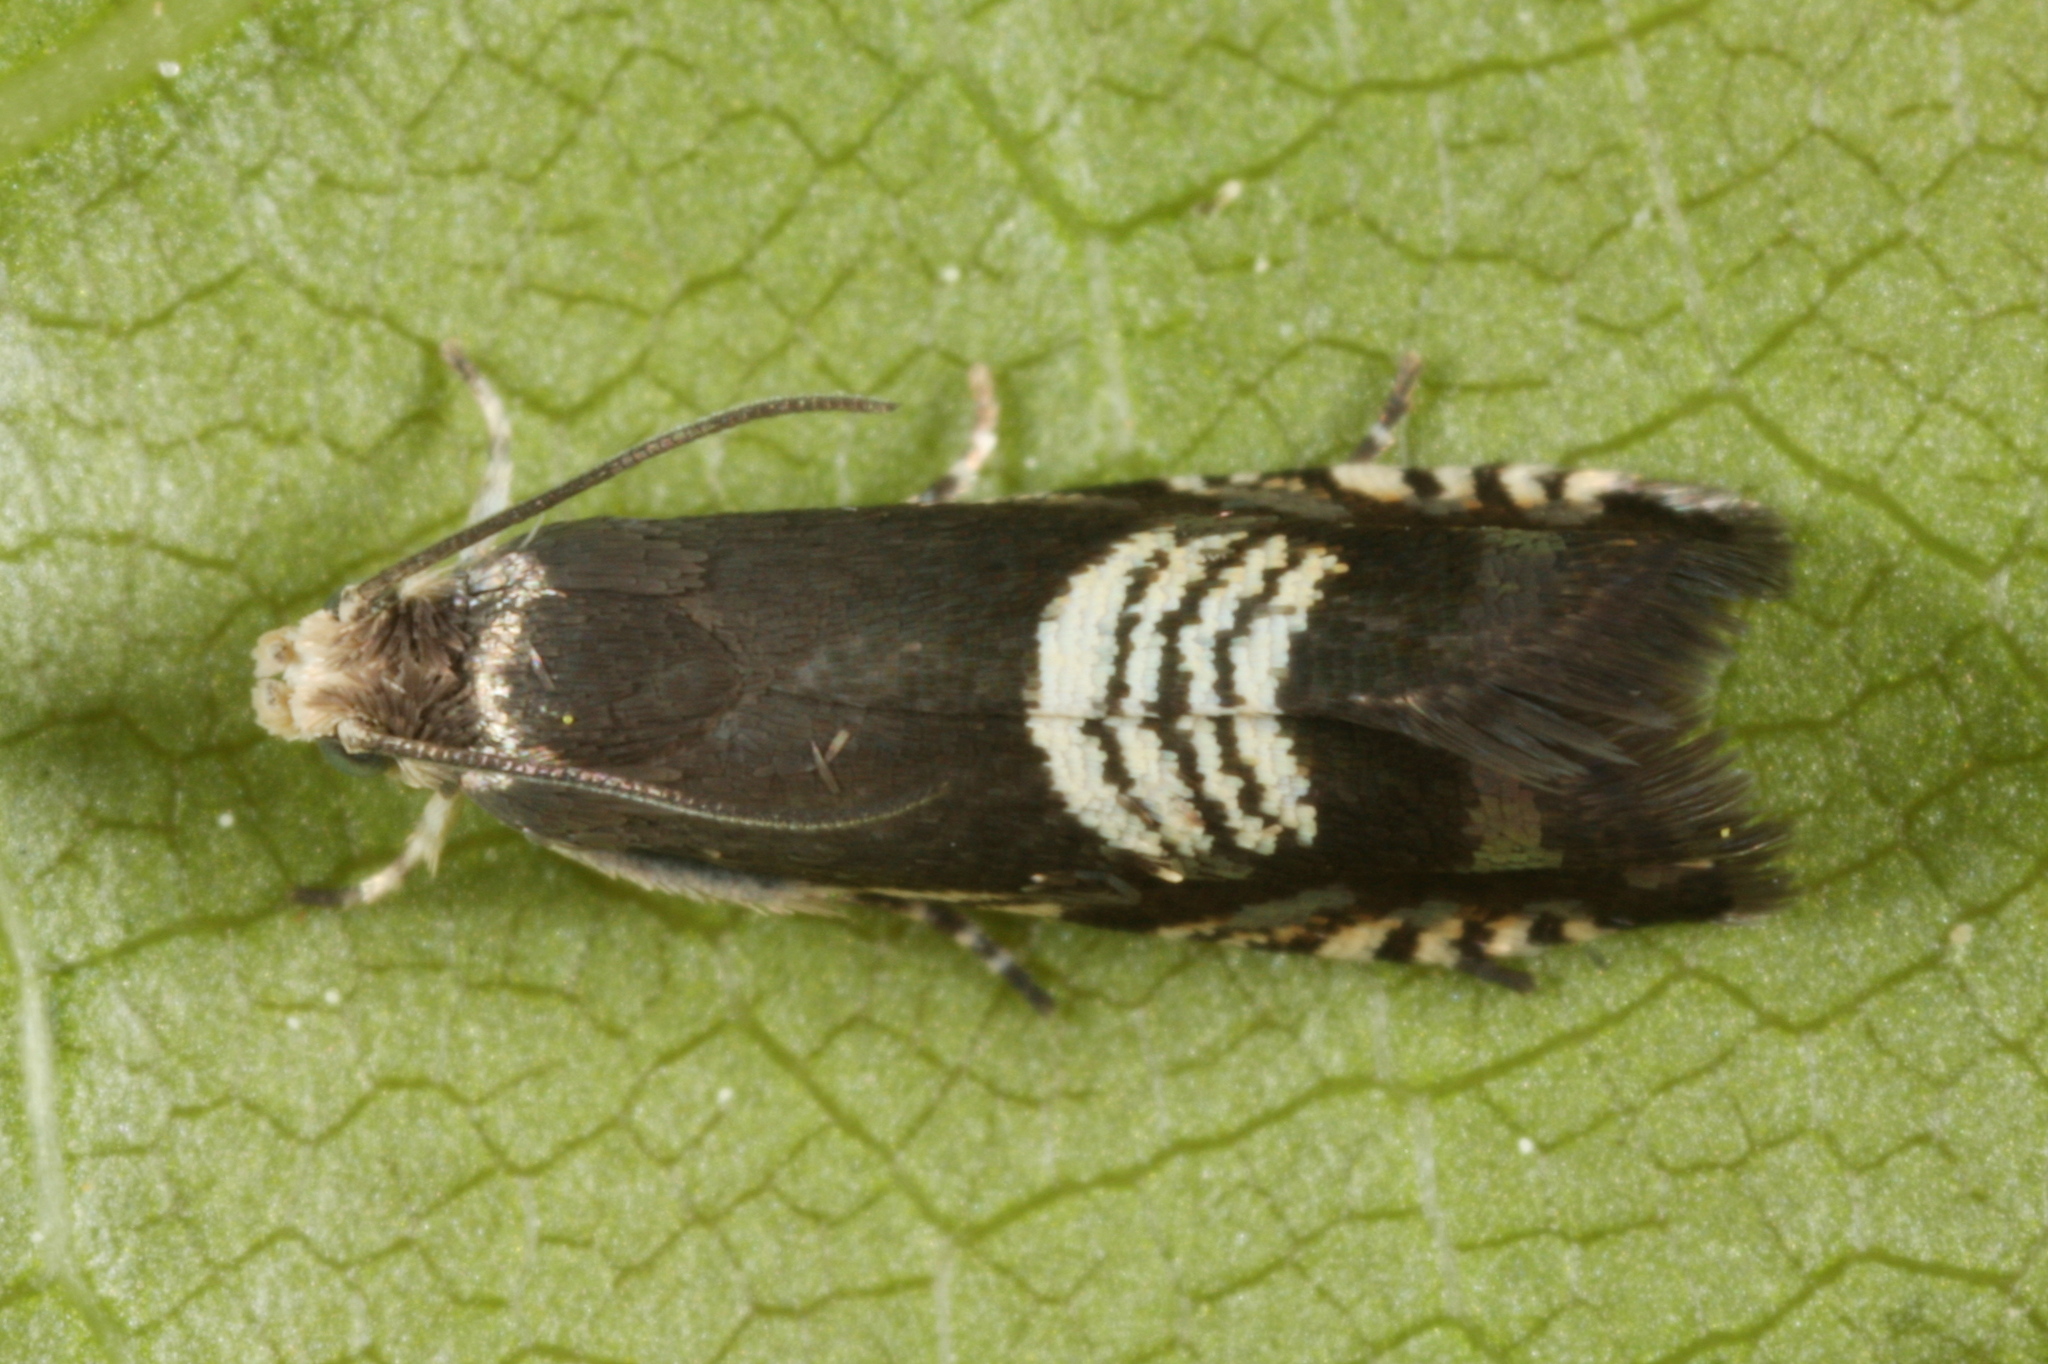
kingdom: Animalia
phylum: Arthropoda
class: Insecta
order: Lepidoptera
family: Tortricidae
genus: Grapholita
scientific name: Grapholita compositella
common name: Triple-stripe piercer
